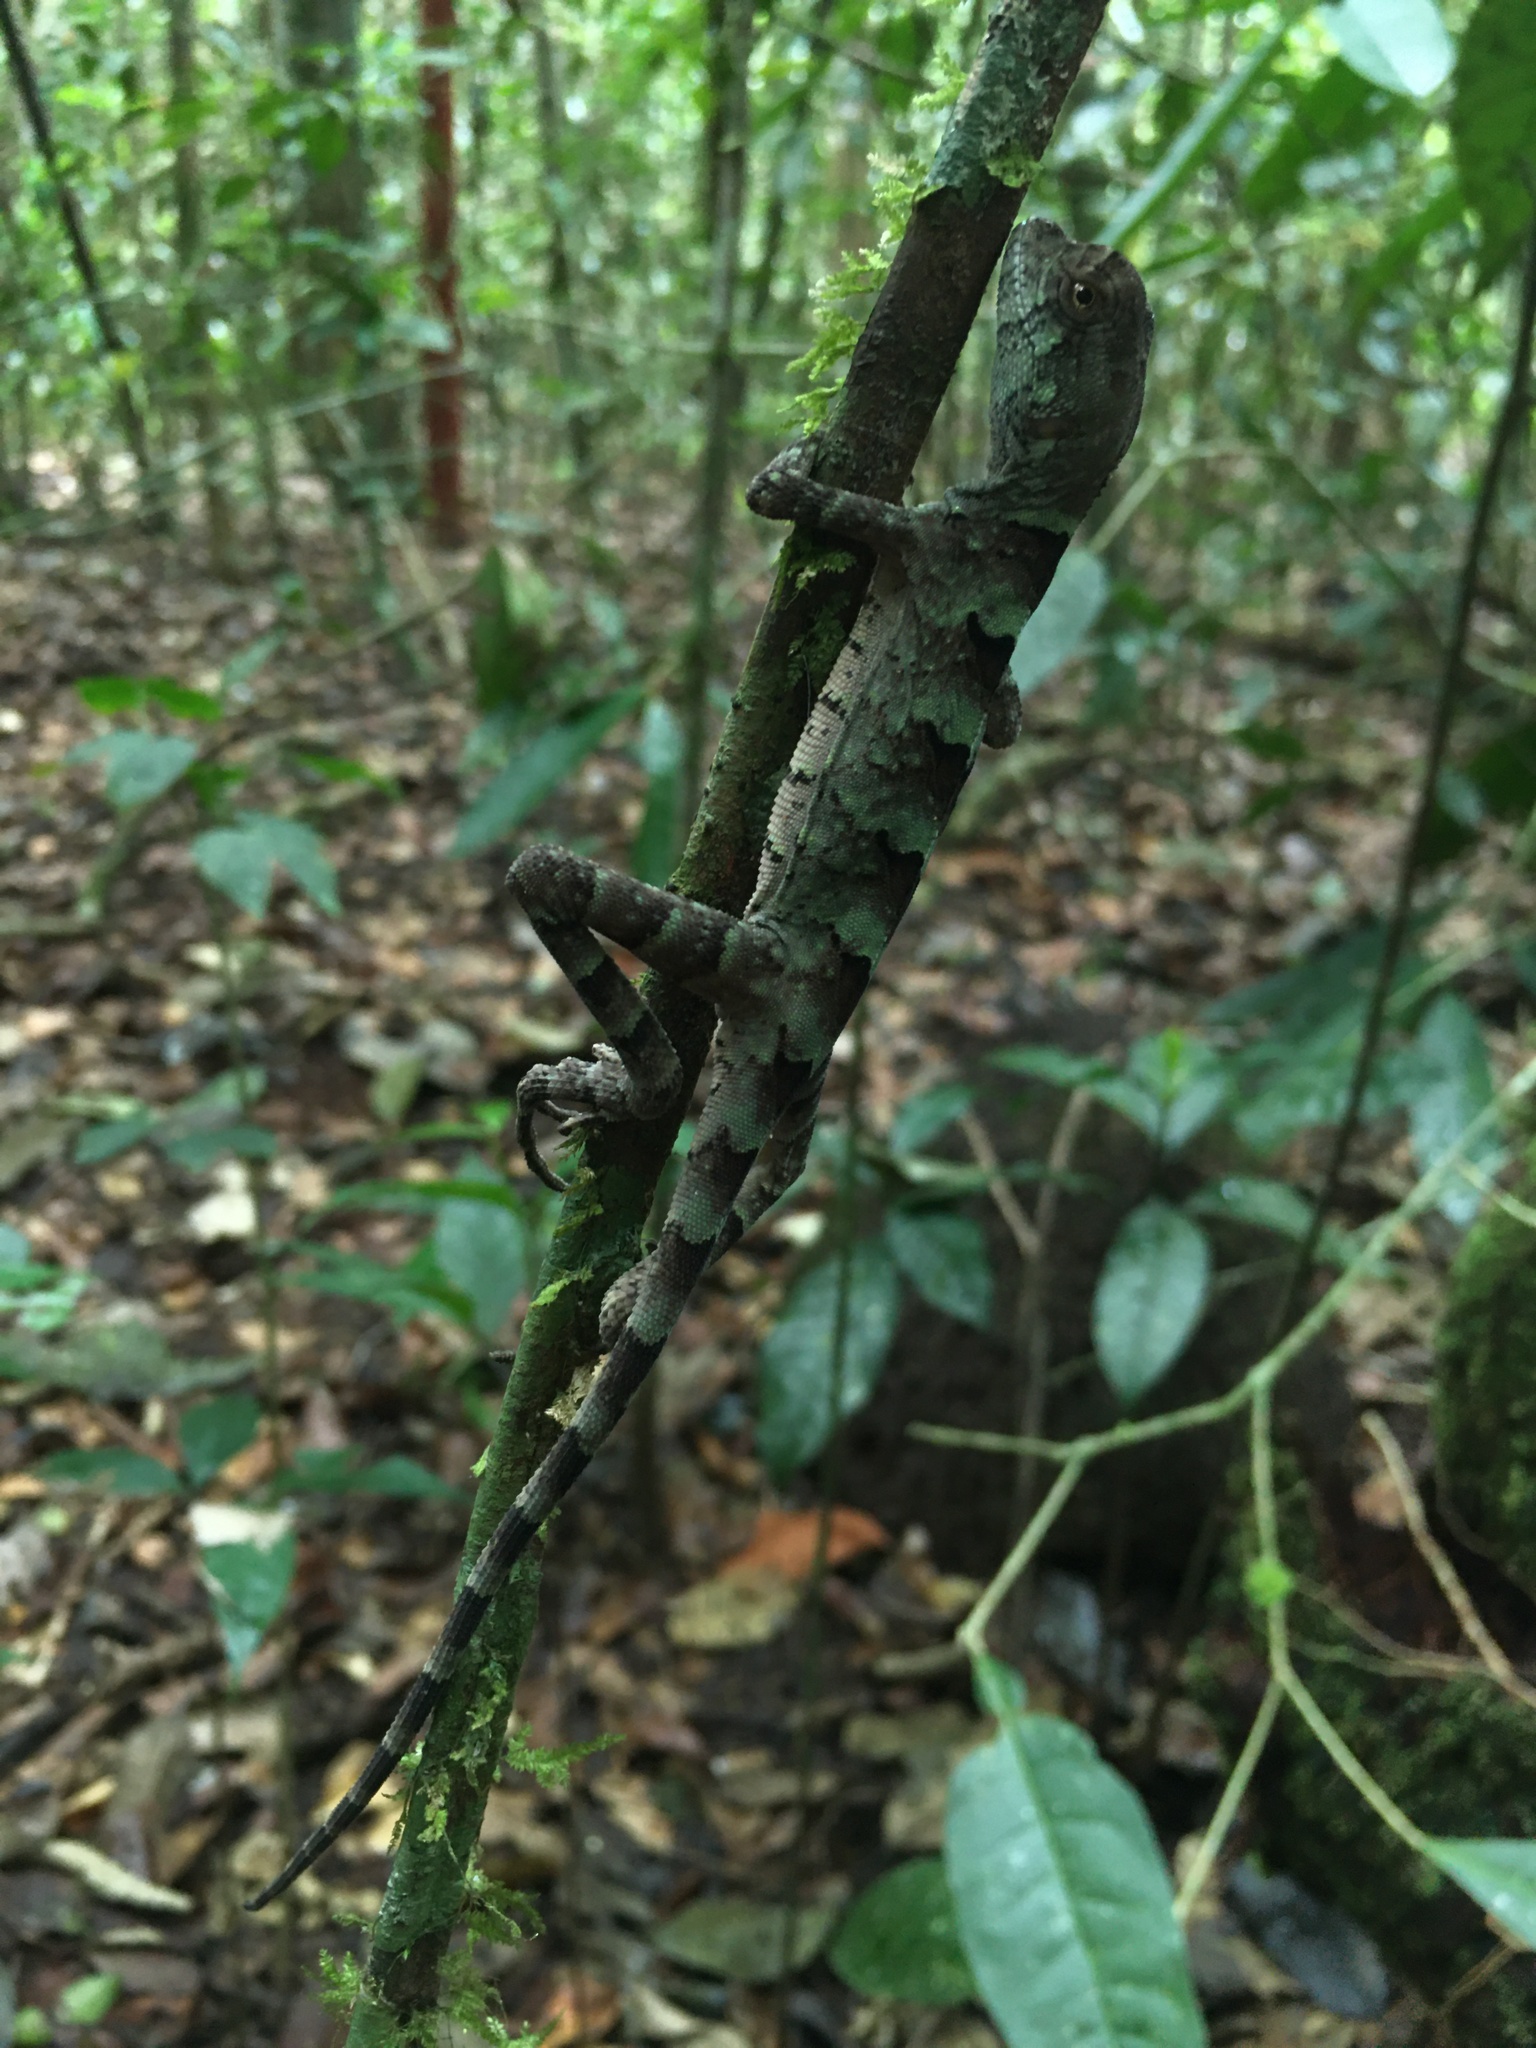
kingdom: Animalia
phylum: Chordata
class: Squamata
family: Leiosauridae
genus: Enyalius
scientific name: Enyalius catenatus
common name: Wied's fathead anole
